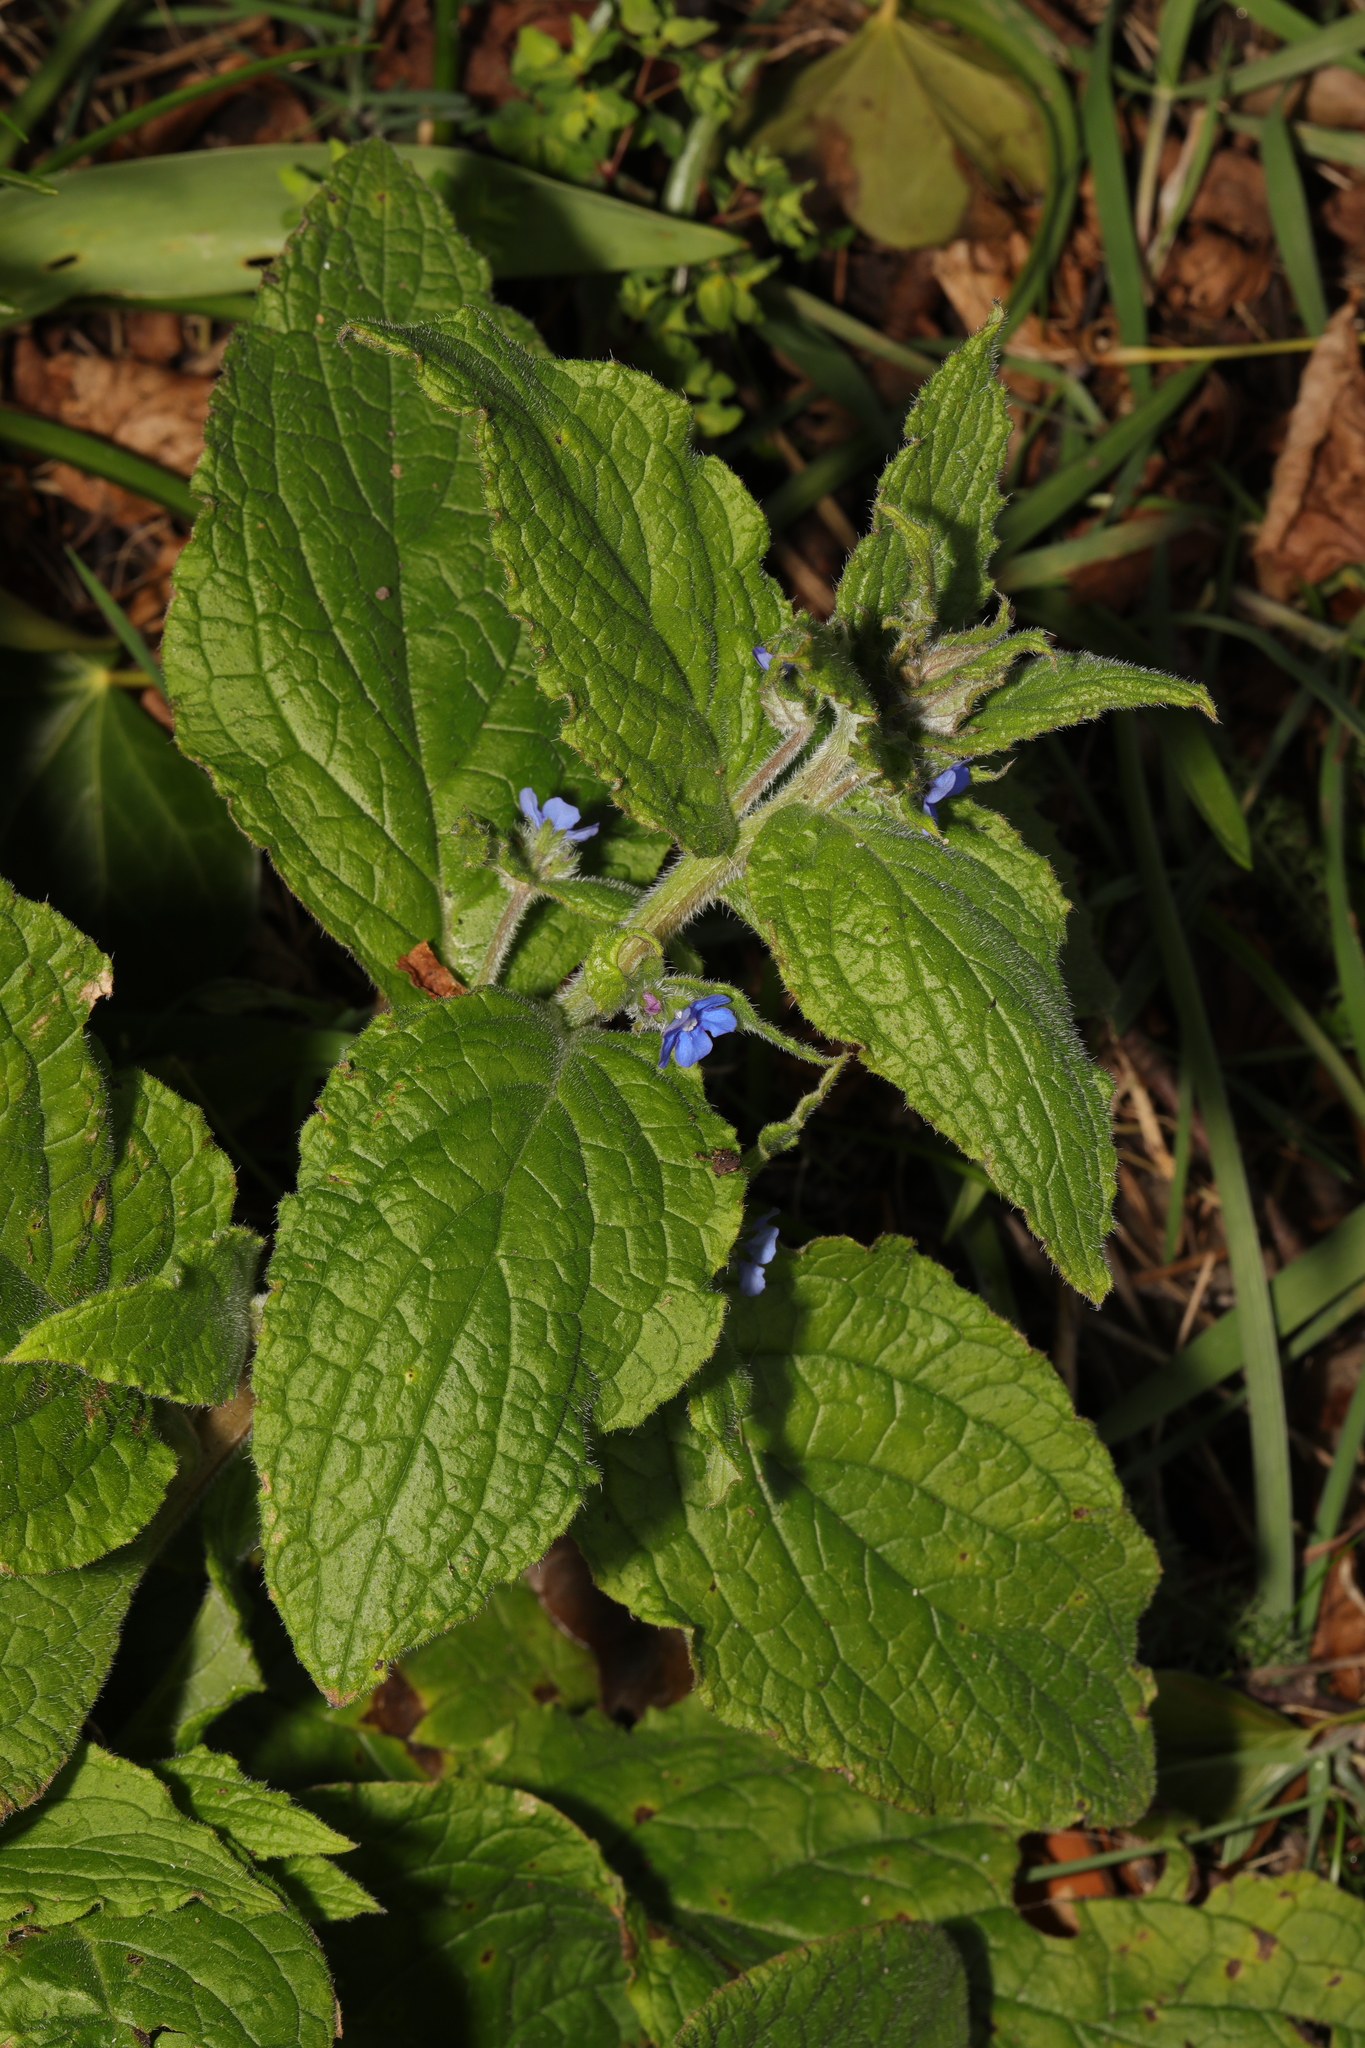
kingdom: Plantae
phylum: Tracheophyta
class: Magnoliopsida
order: Boraginales
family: Boraginaceae
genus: Pentaglottis
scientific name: Pentaglottis sempervirens
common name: Green alkanet
